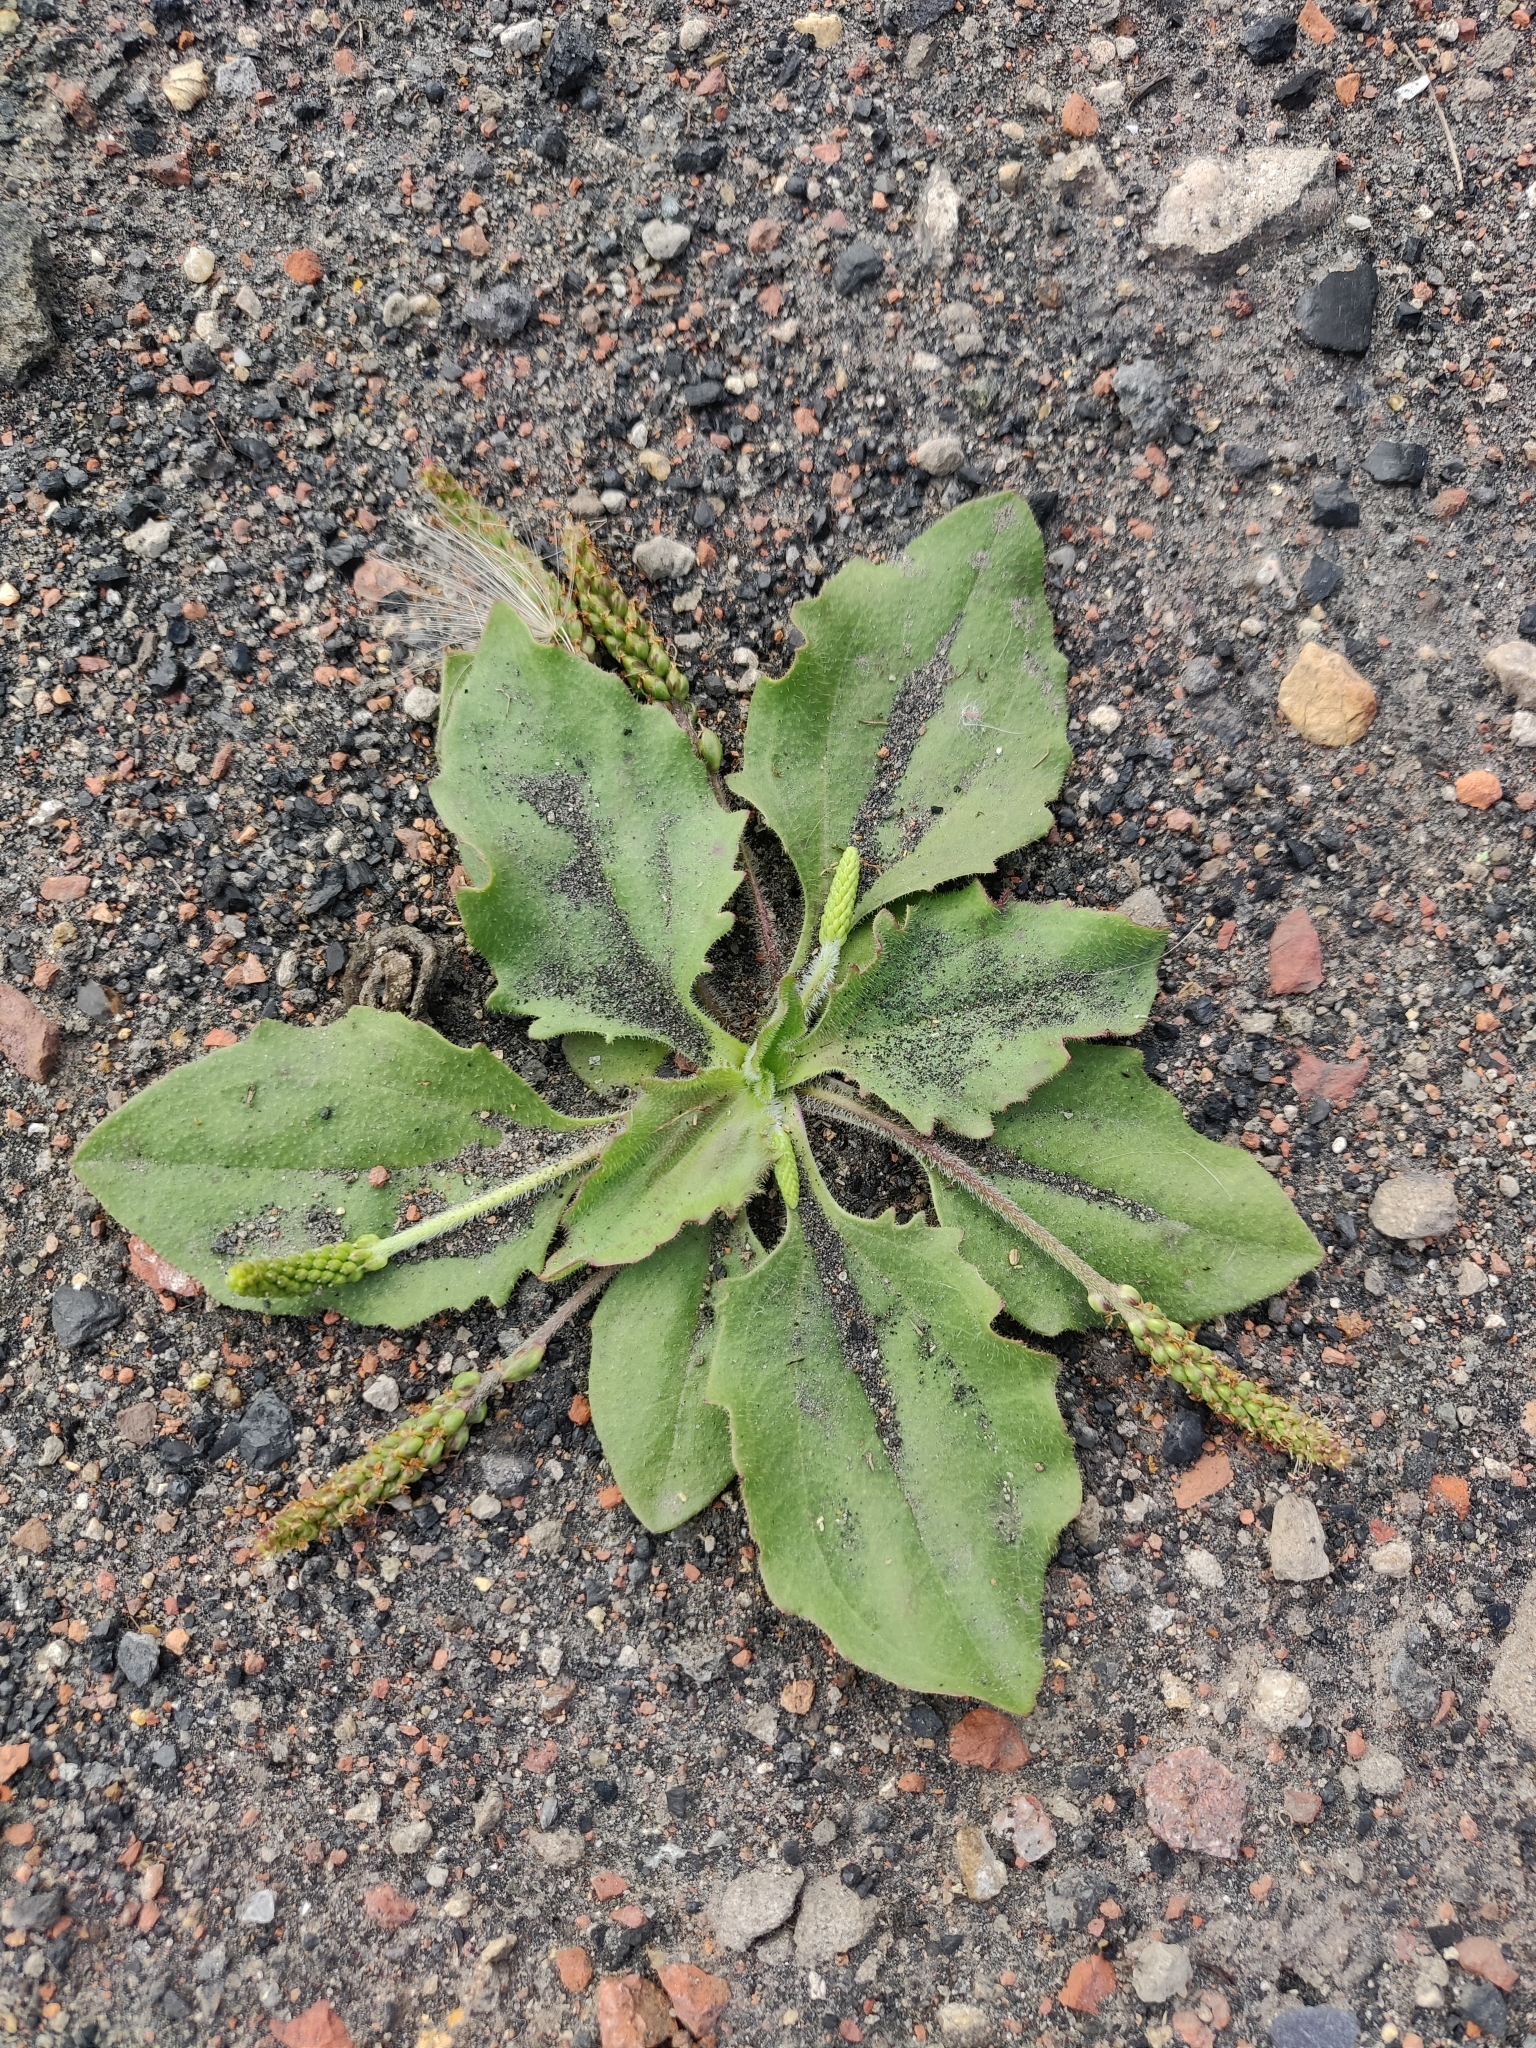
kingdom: Plantae
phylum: Tracheophyta
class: Magnoliopsida
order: Lamiales
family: Plantaginaceae
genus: Plantago
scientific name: Plantago major
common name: Common plantain
